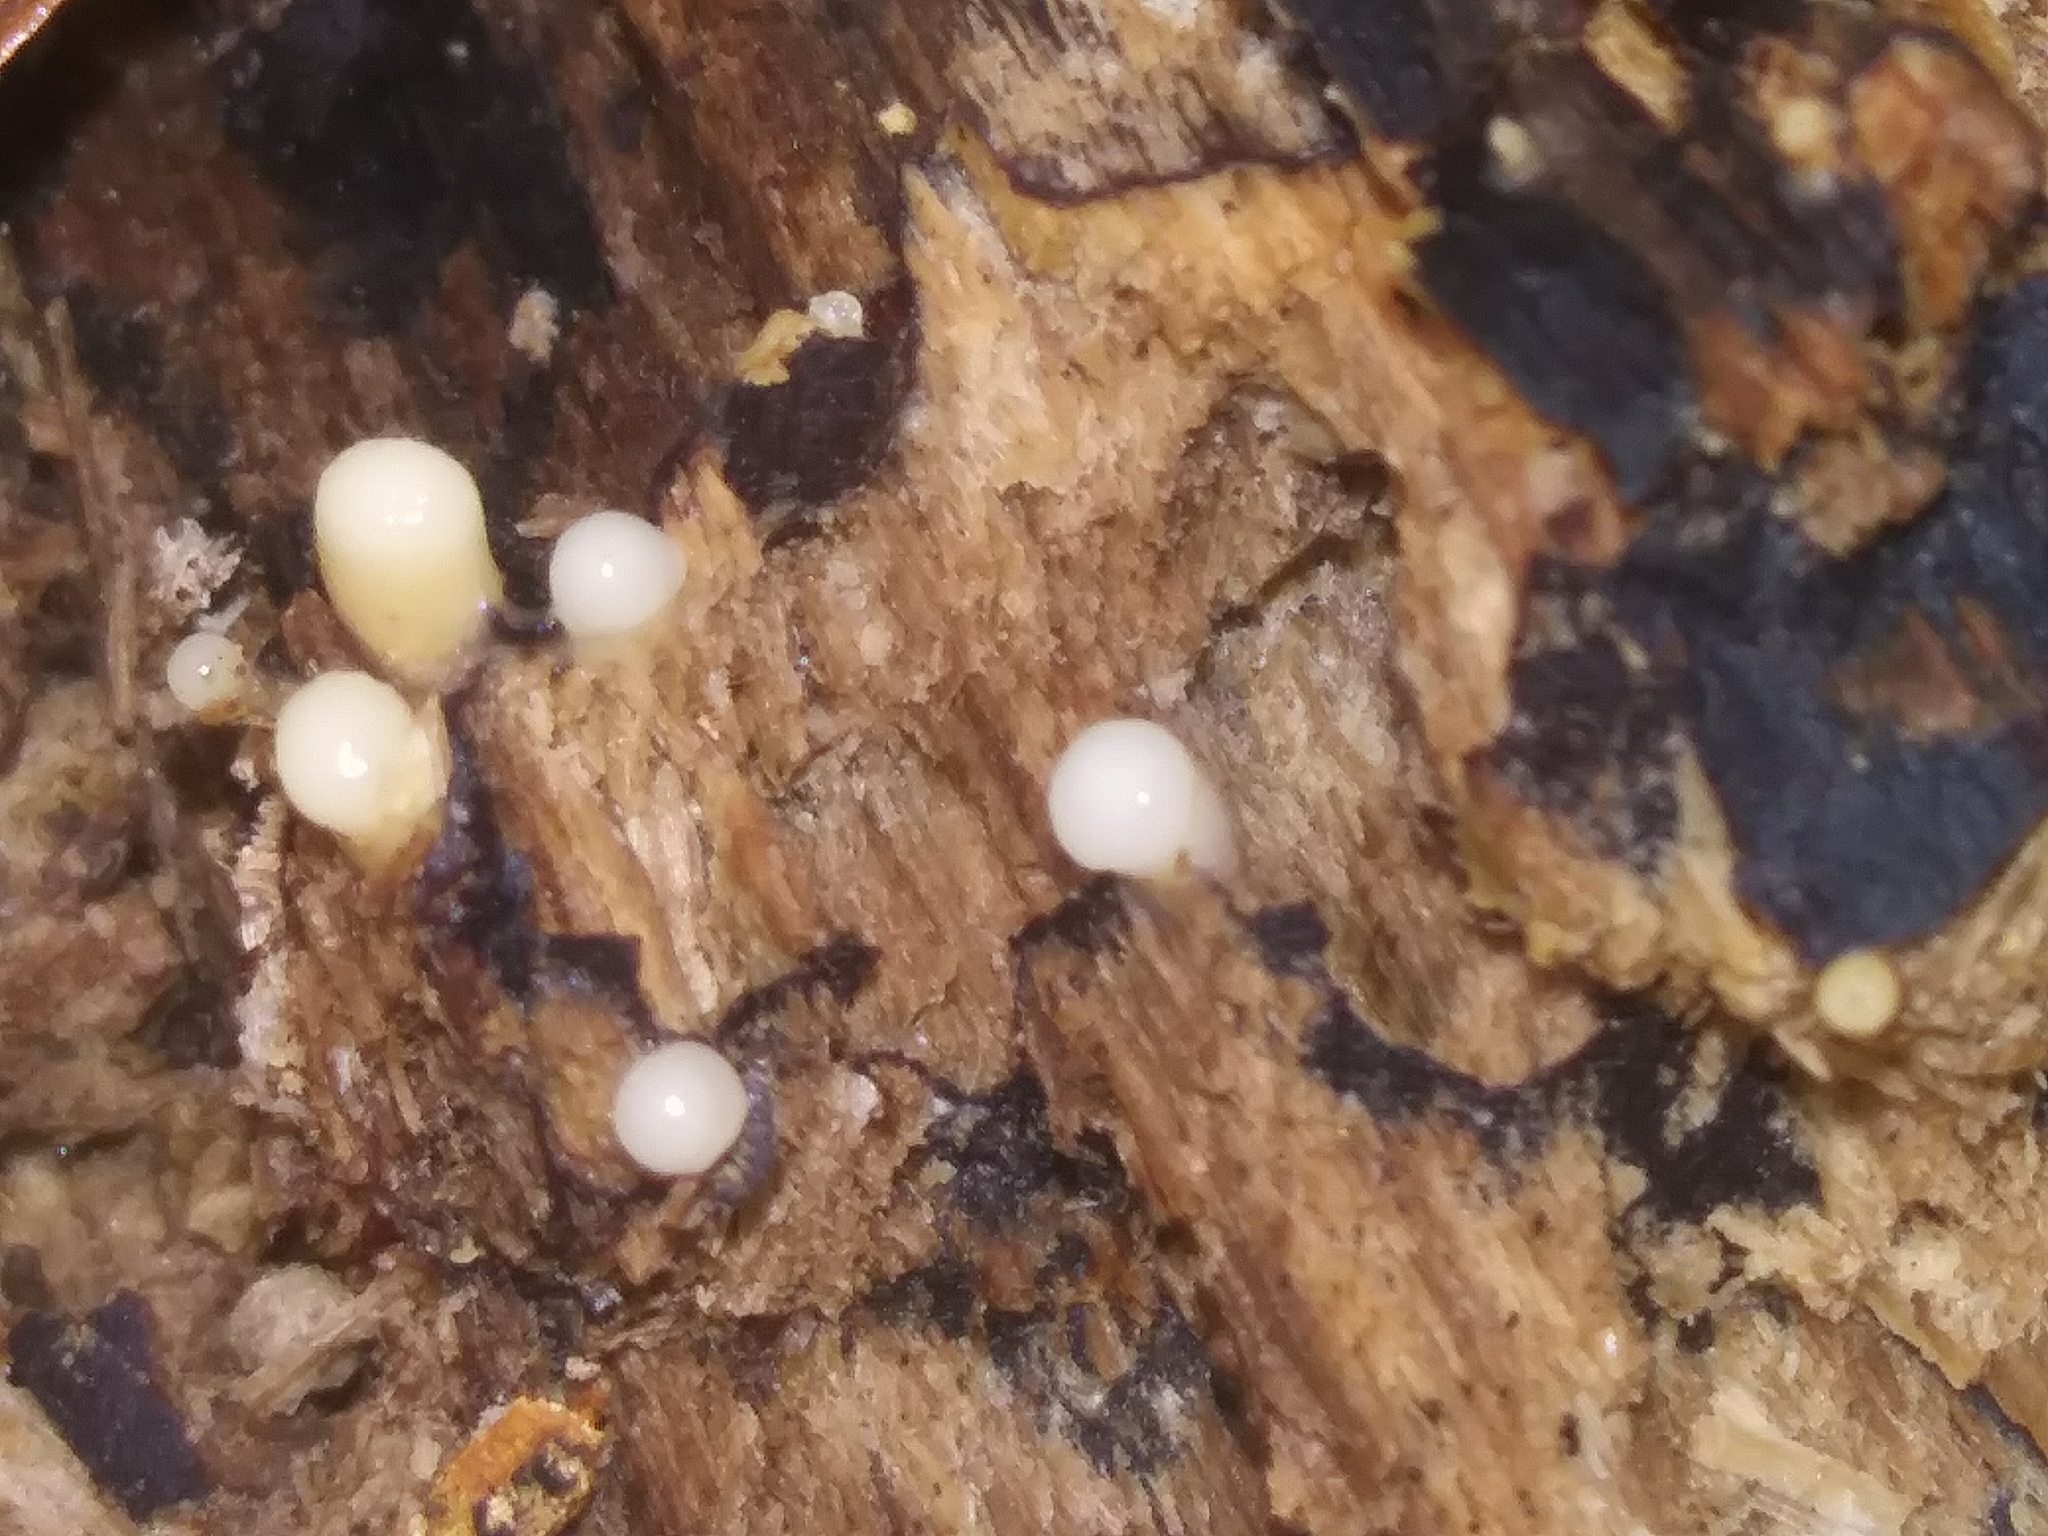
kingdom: Fungi
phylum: Basidiomycota
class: Atractiellomycetes
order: Atractiellales
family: Phleogenaceae
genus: Helicogloea
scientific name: Helicogloea compressa
